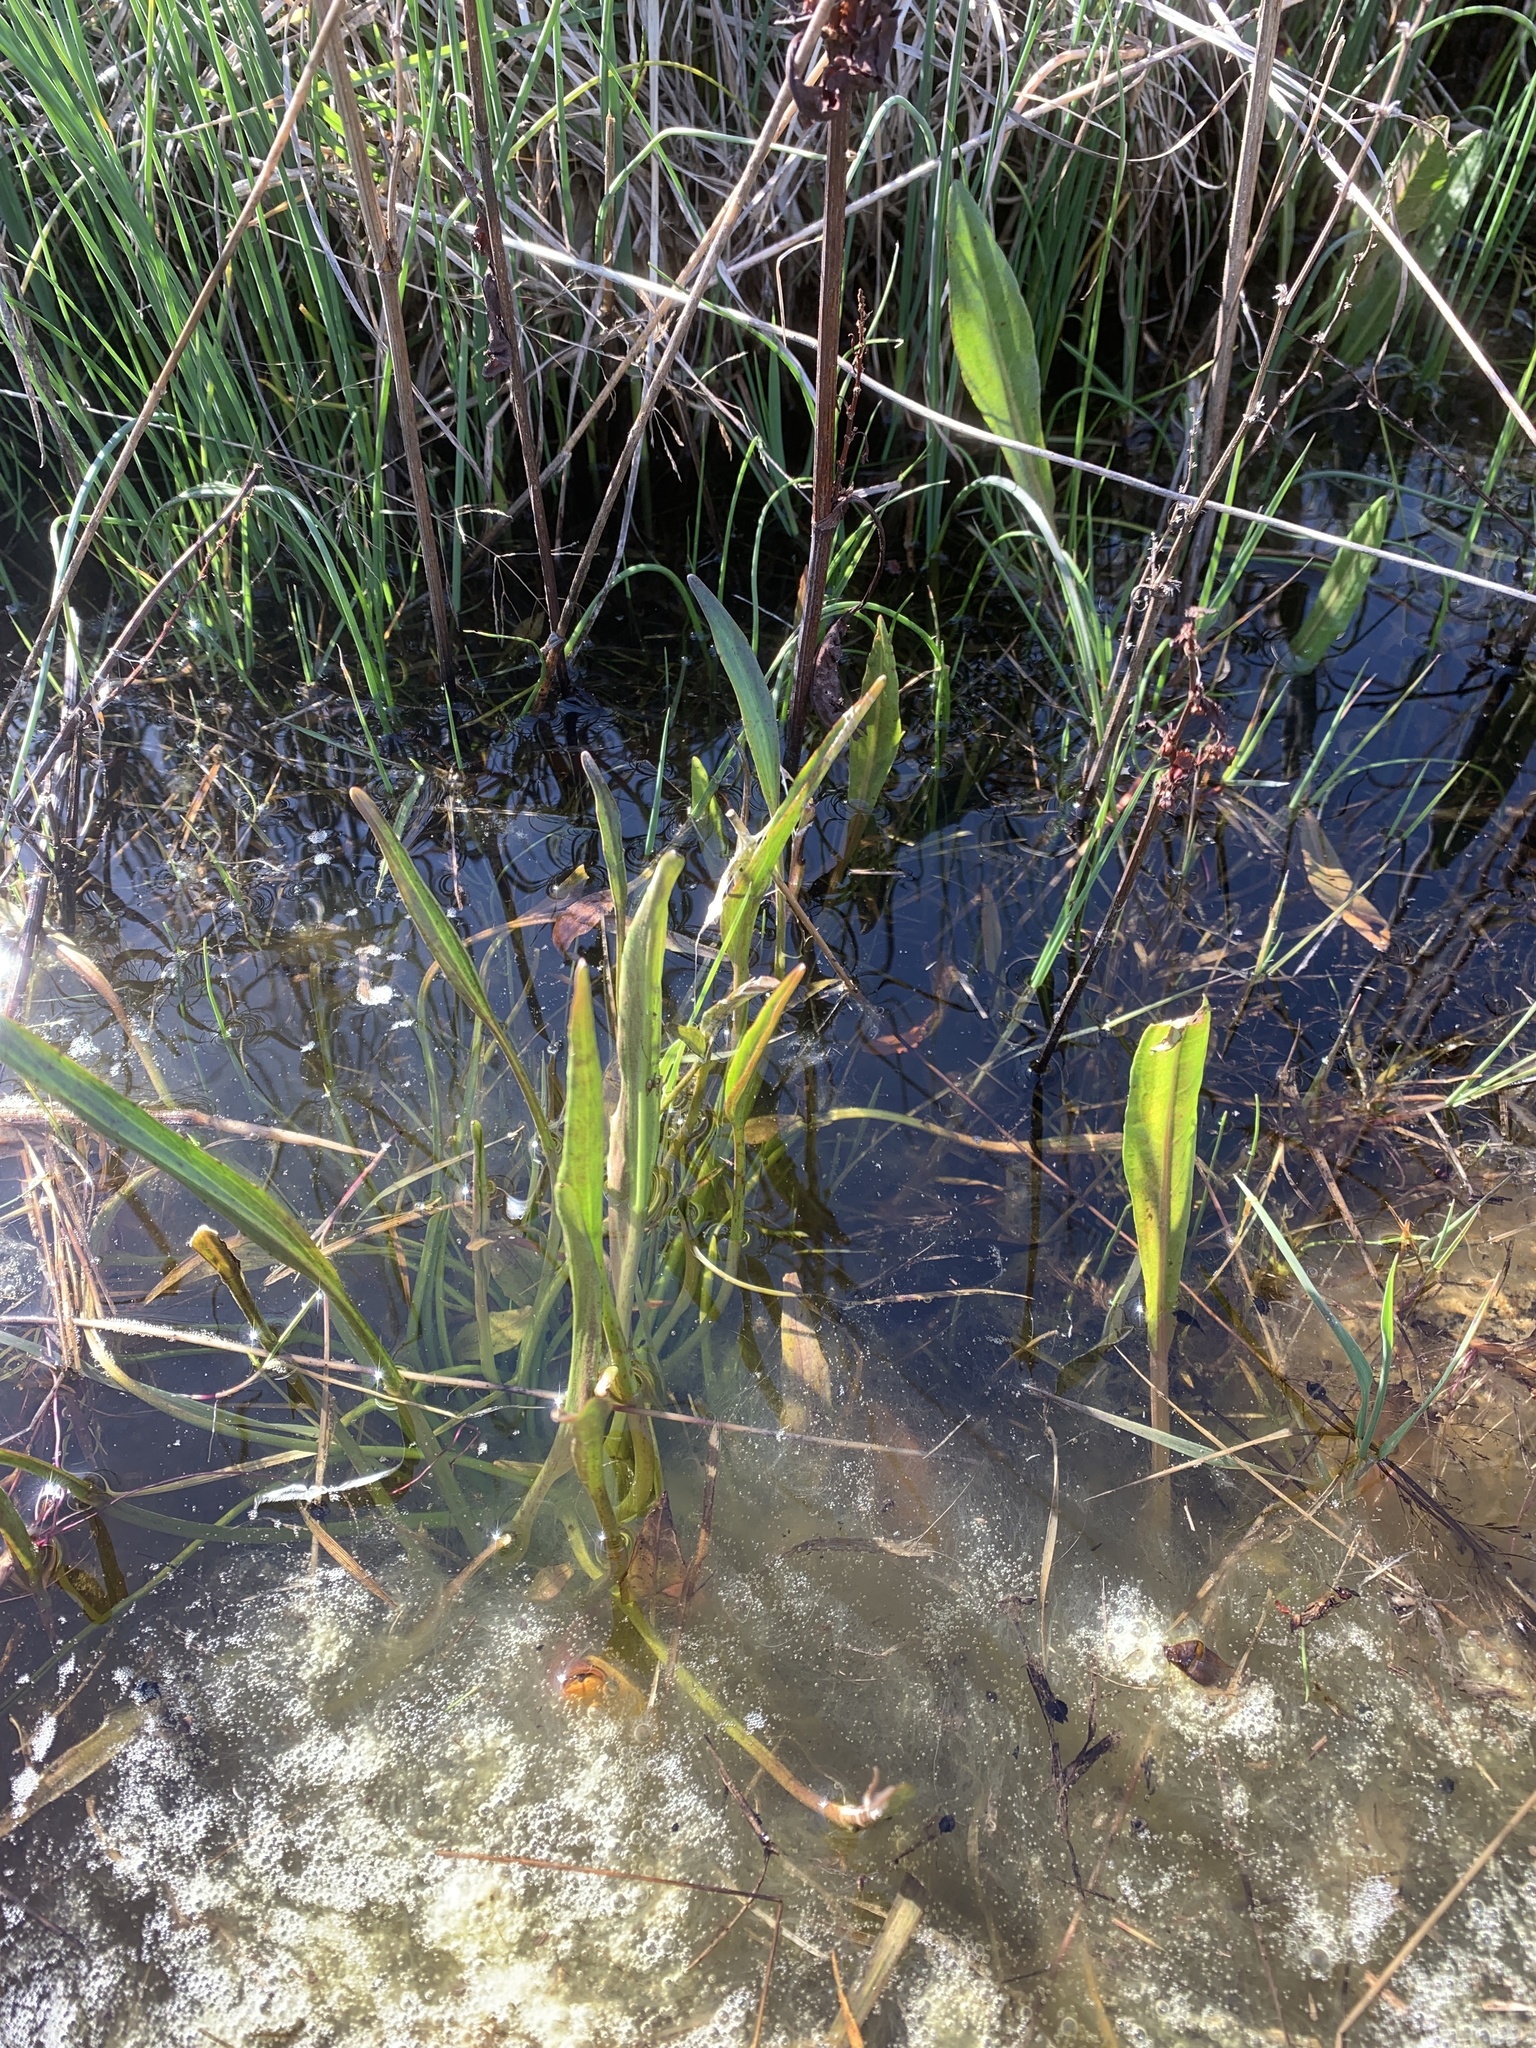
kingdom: Plantae
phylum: Tracheophyta
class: Magnoliopsida
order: Ranunculales
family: Ranunculaceae
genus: Ranunculus
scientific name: Ranunculus alismifolius
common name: Plantain-leaved buttercup
